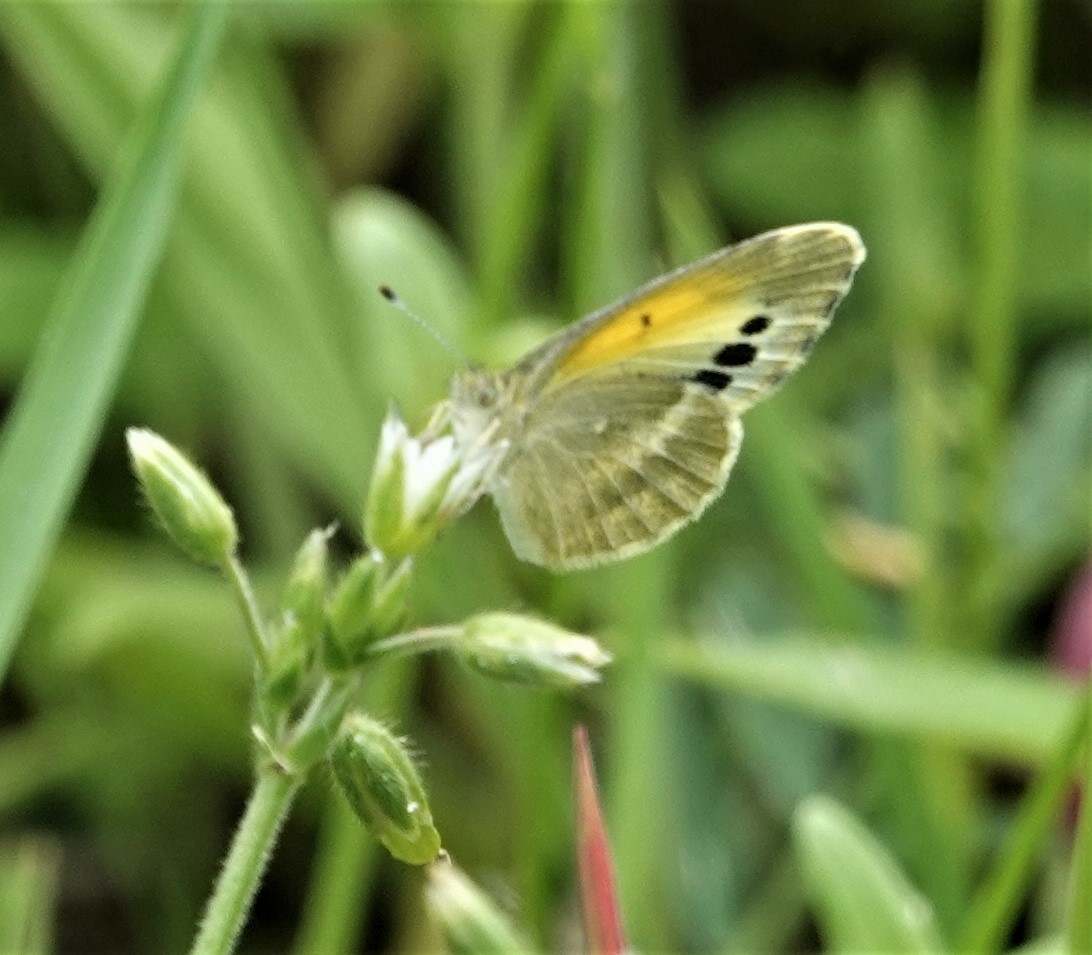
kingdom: Animalia
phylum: Arthropoda
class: Insecta
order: Lepidoptera
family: Pieridae
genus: Nathalis
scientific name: Nathalis iole
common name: Dainty sulphur
